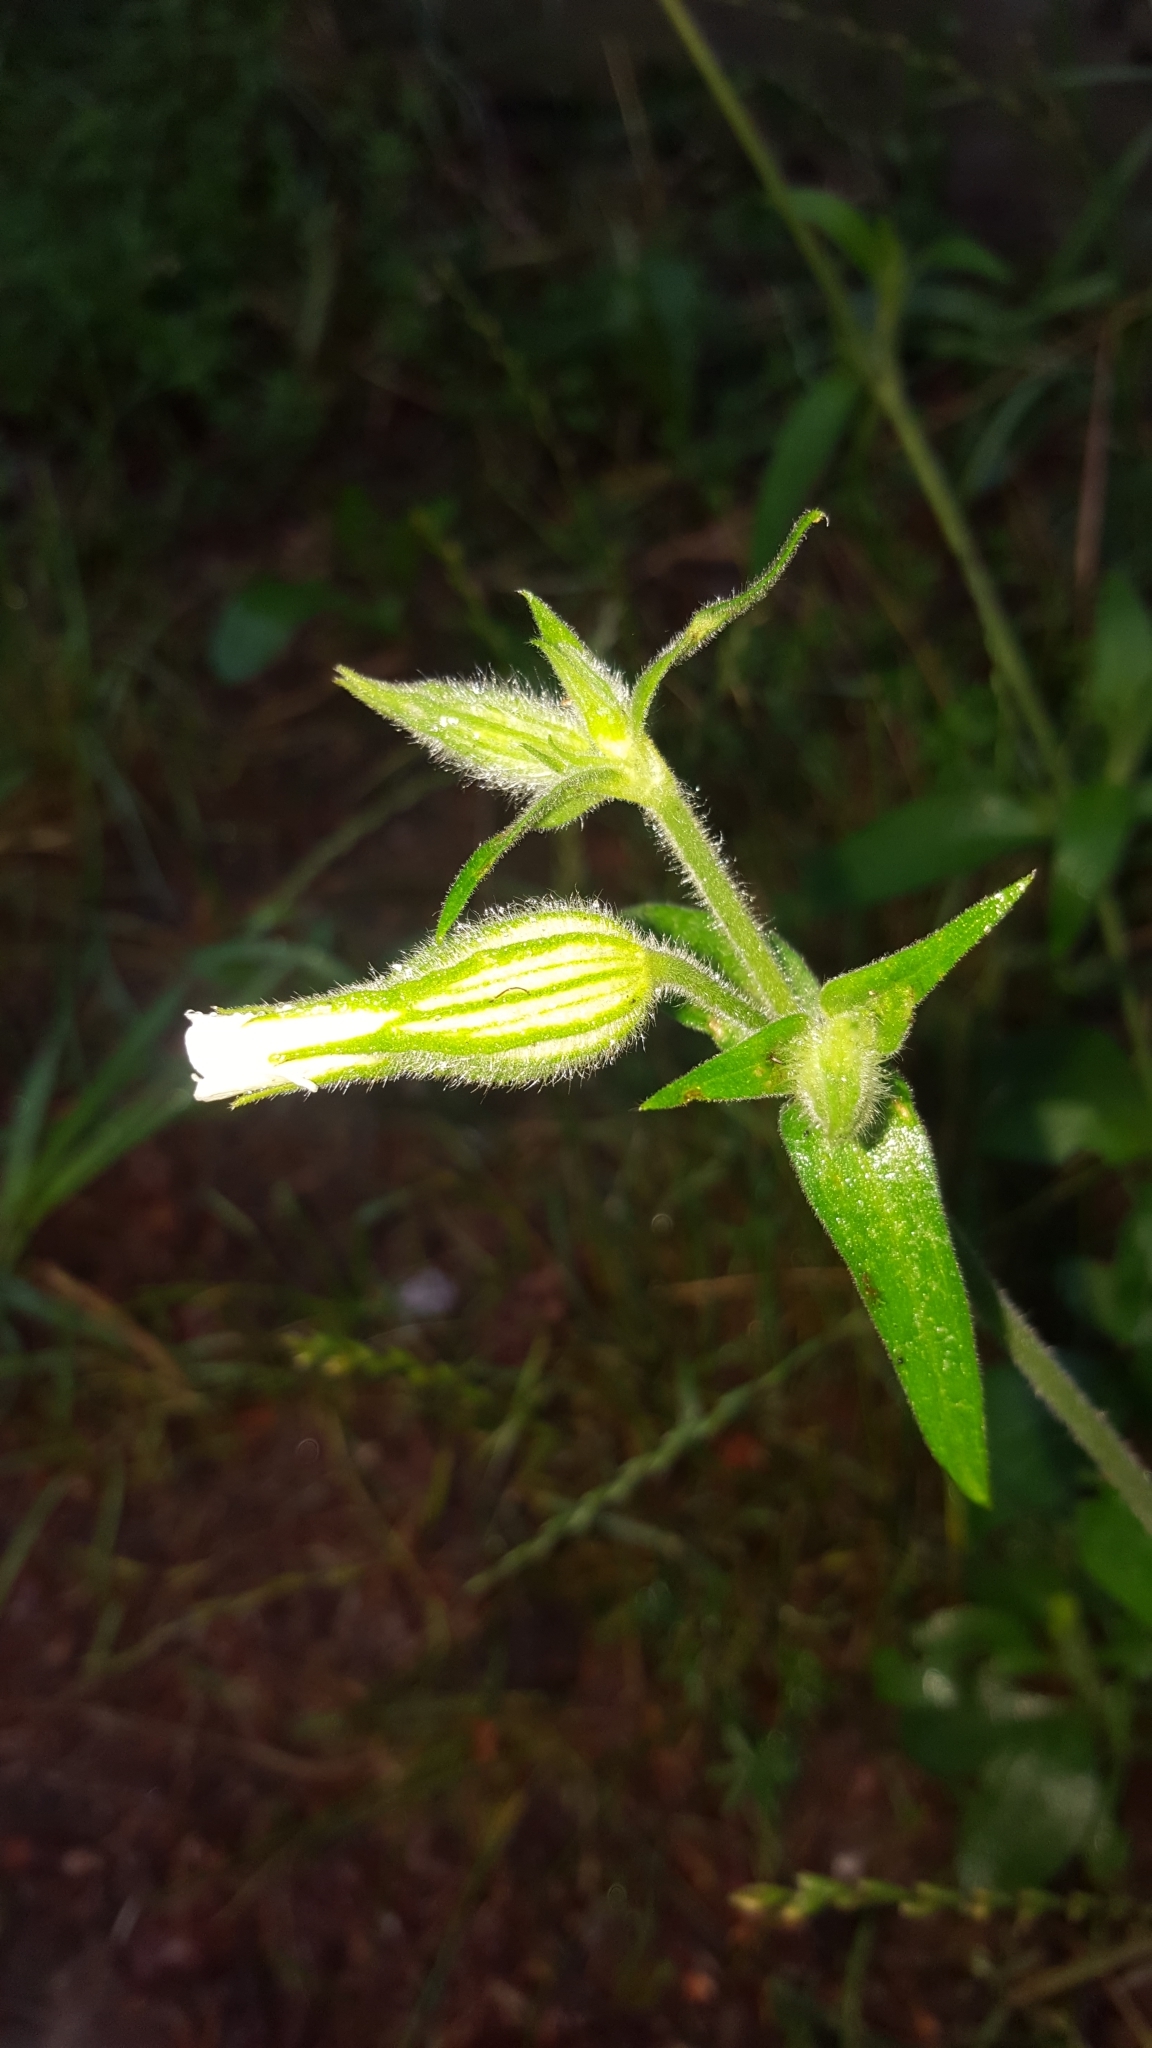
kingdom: Plantae
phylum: Tracheophyta
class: Magnoliopsida
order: Caryophyllales
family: Caryophyllaceae
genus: Silene
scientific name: Silene latifolia
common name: White campion
